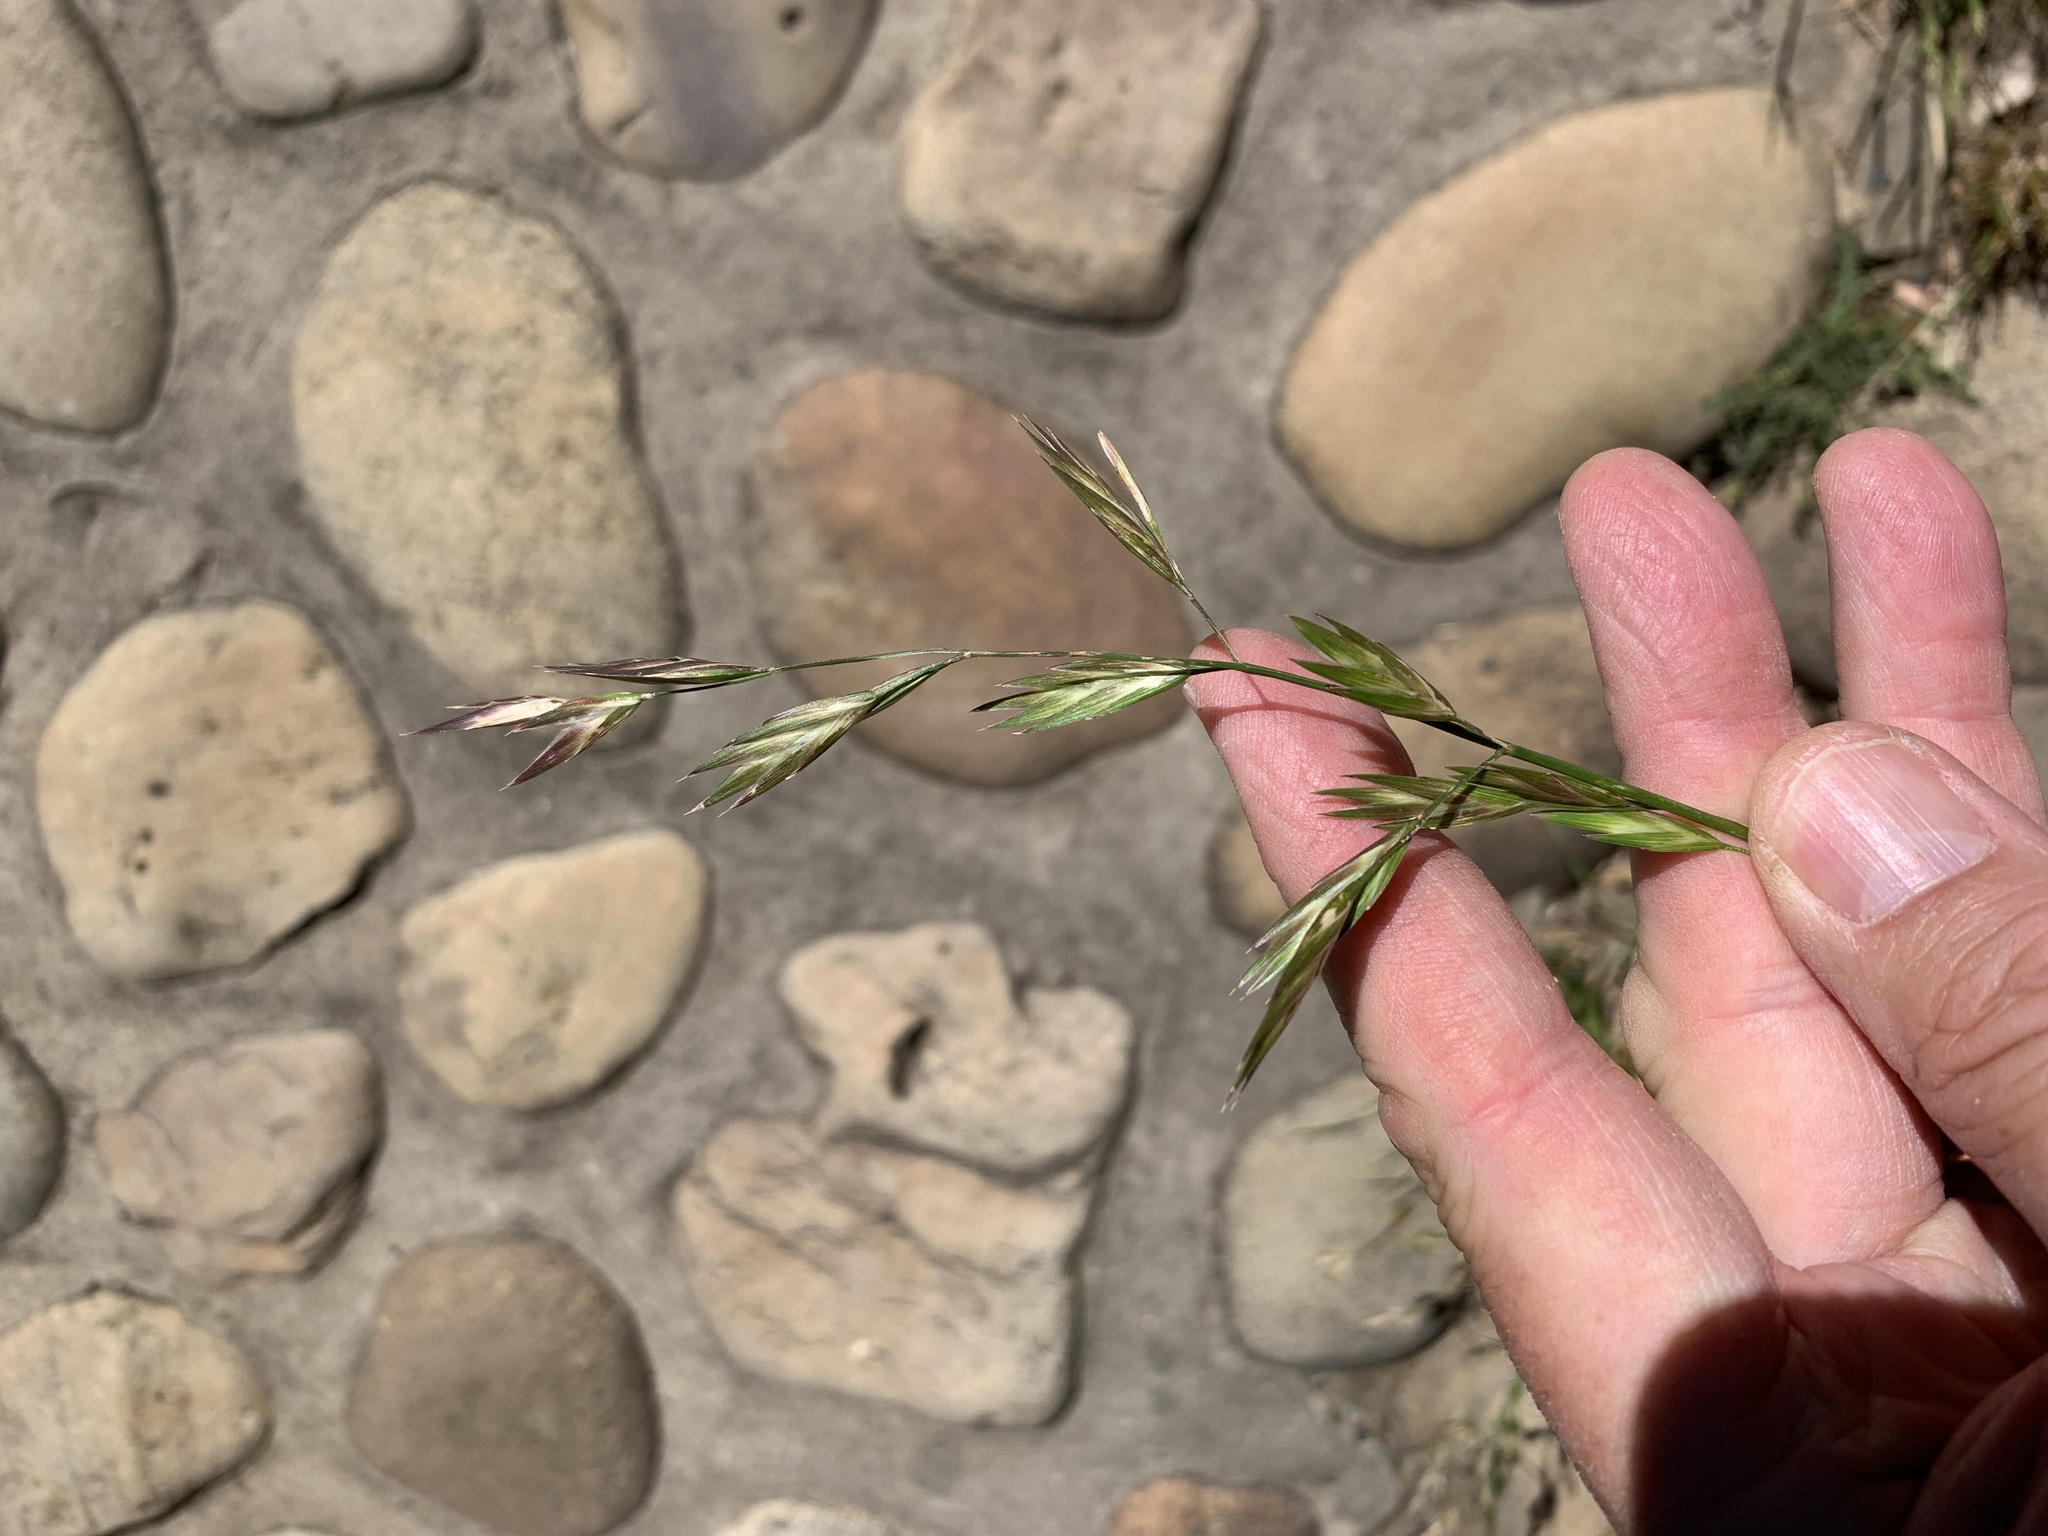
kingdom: Plantae
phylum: Tracheophyta
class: Liliopsida
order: Poales
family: Poaceae
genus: Bromus
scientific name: Bromus catharticus
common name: Rescuegrass
